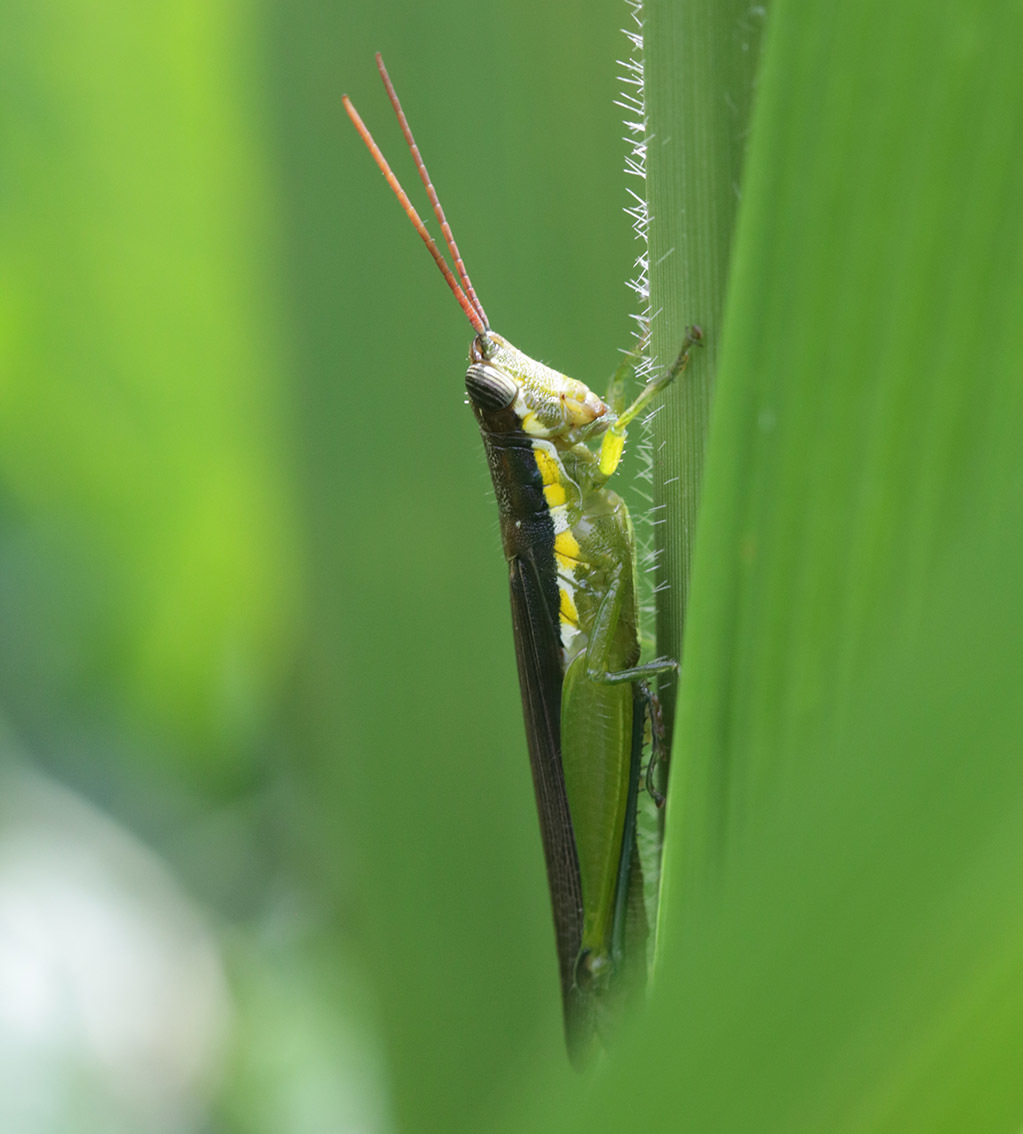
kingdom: Animalia
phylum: Arthropoda
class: Insecta
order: Orthoptera
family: Acrididae
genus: Stenopola
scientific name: Stenopola puncticeps
